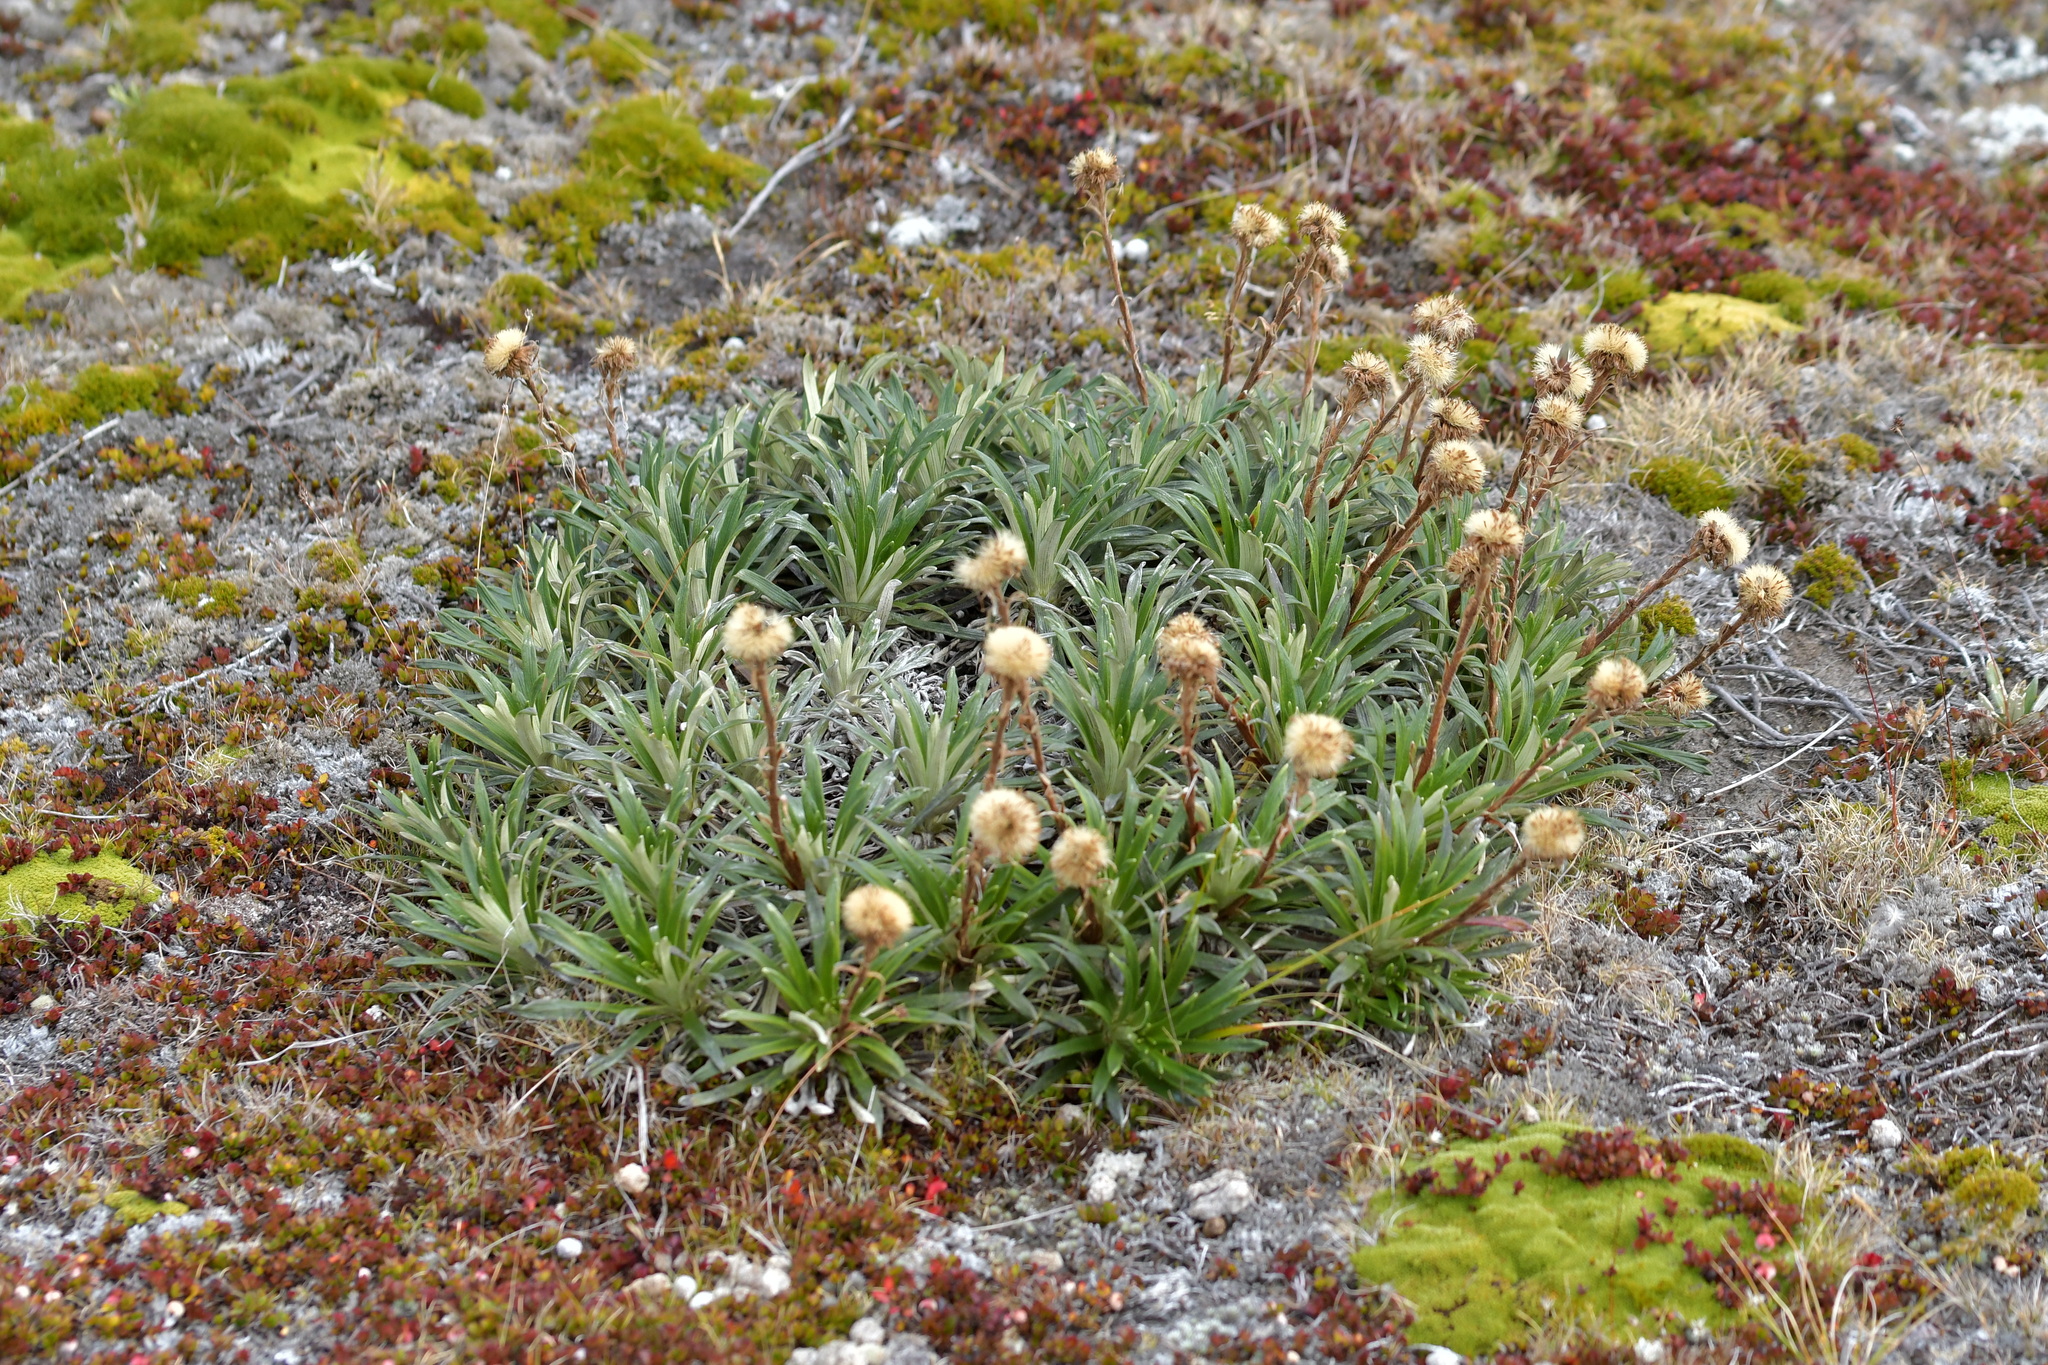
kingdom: Plantae
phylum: Tracheophyta
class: Magnoliopsida
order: Asterales
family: Asteraceae
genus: Celmisia
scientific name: Celmisia viscosa
